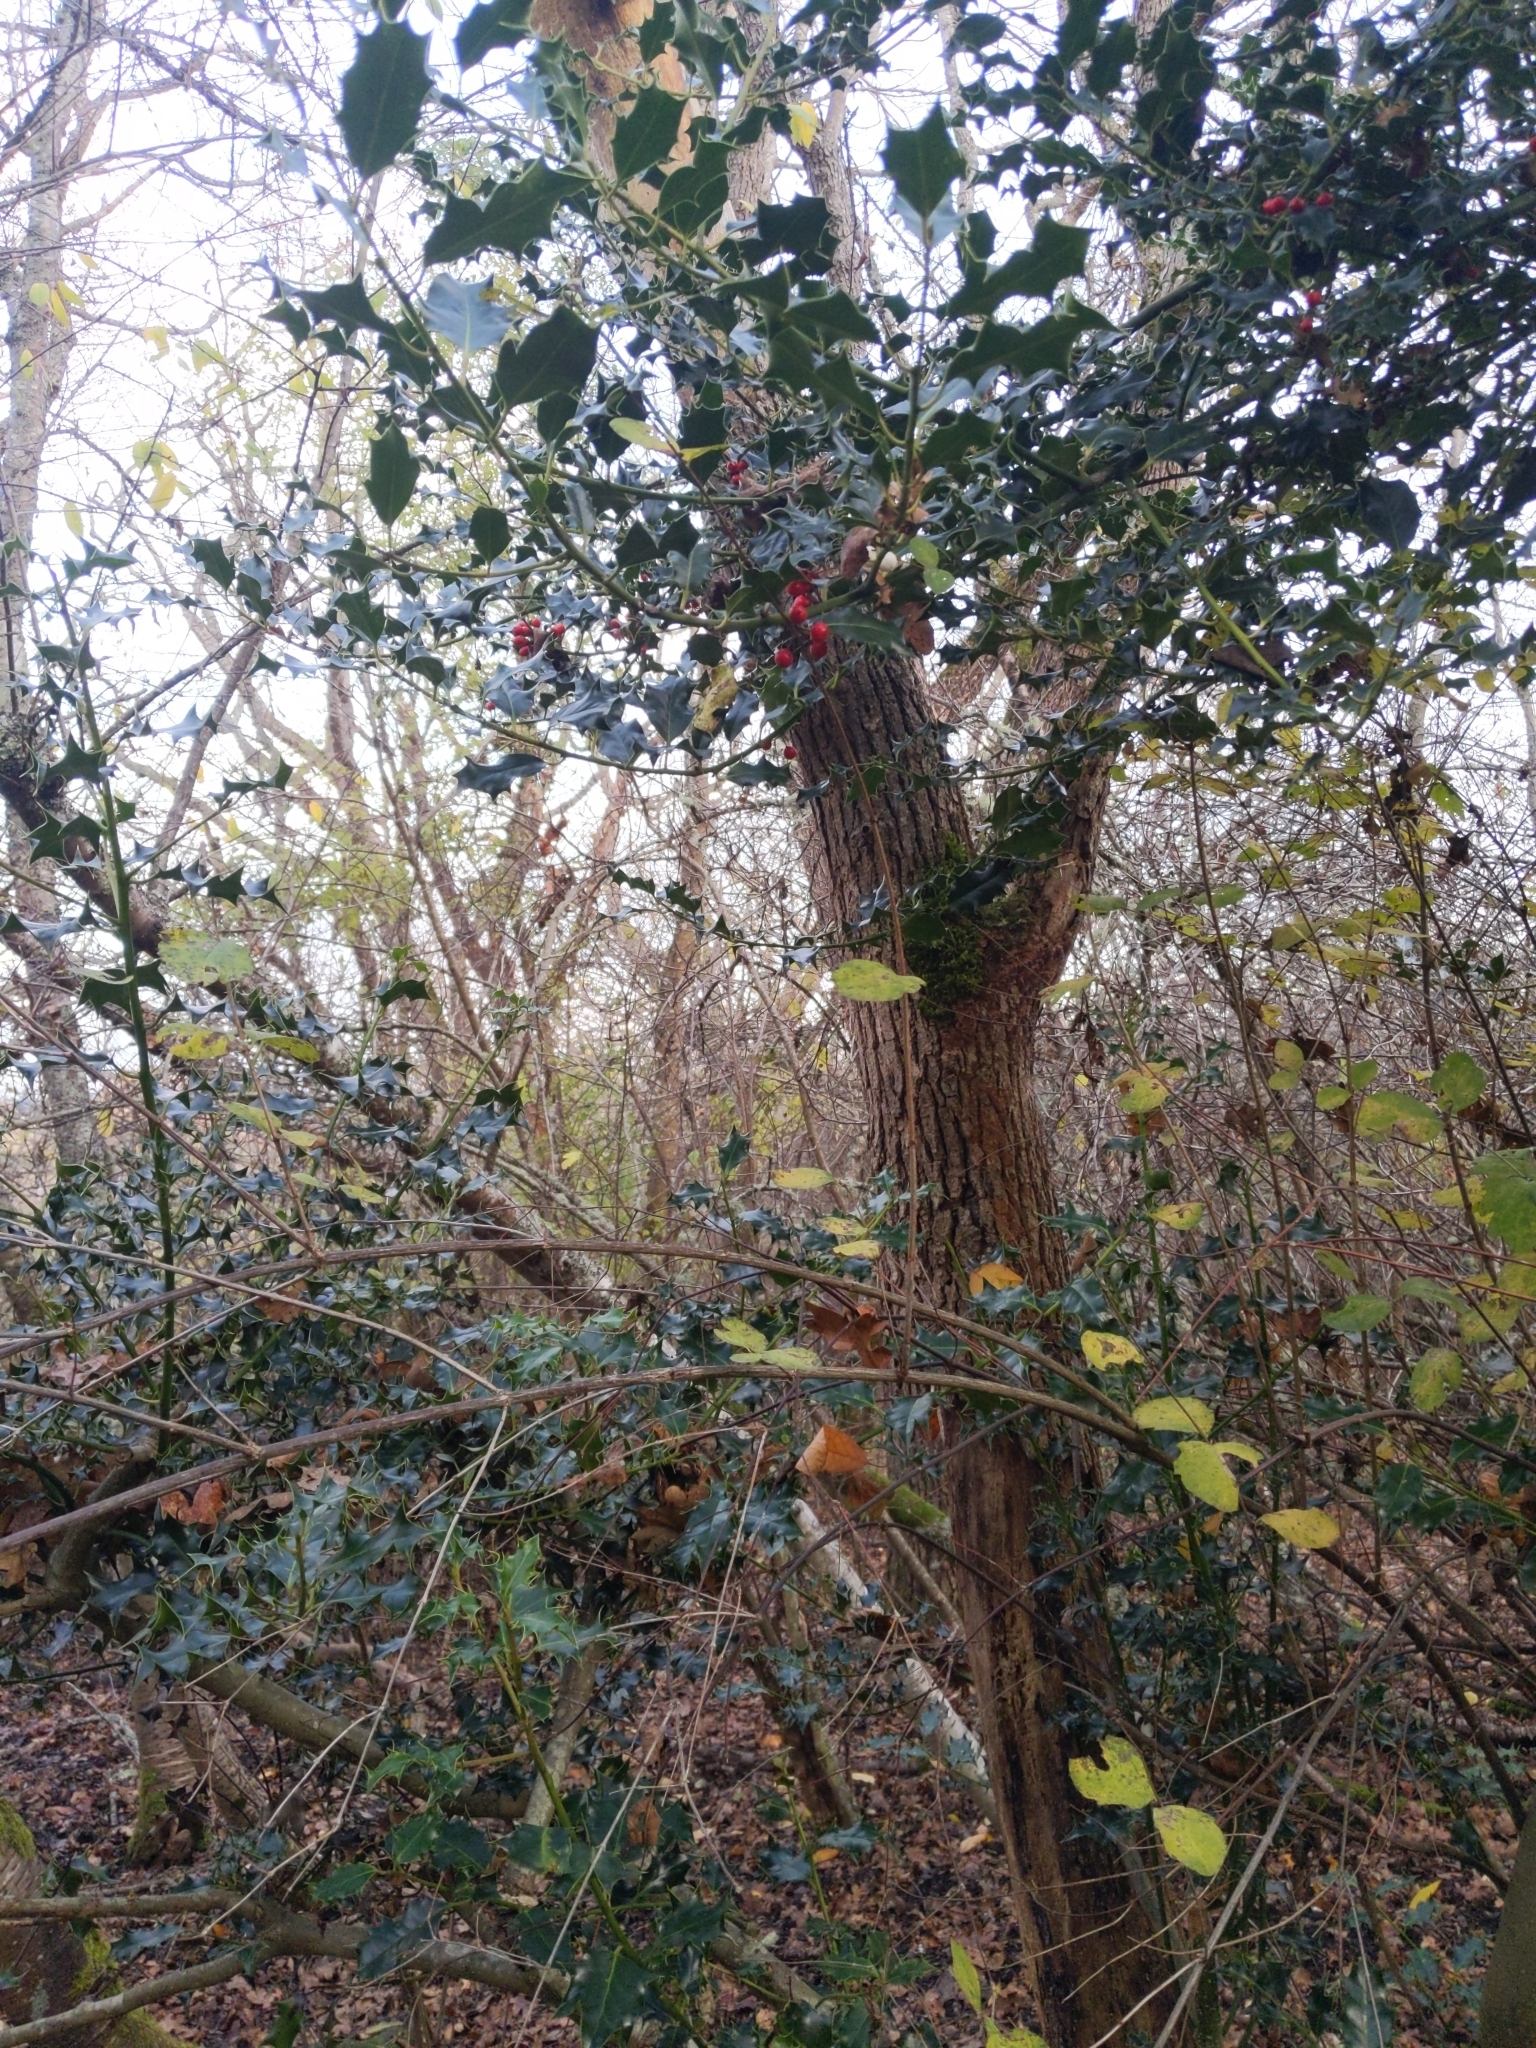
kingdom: Plantae
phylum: Tracheophyta
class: Magnoliopsida
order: Aquifoliales
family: Aquifoliaceae
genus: Ilex
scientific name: Ilex aquifolium
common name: English holly
